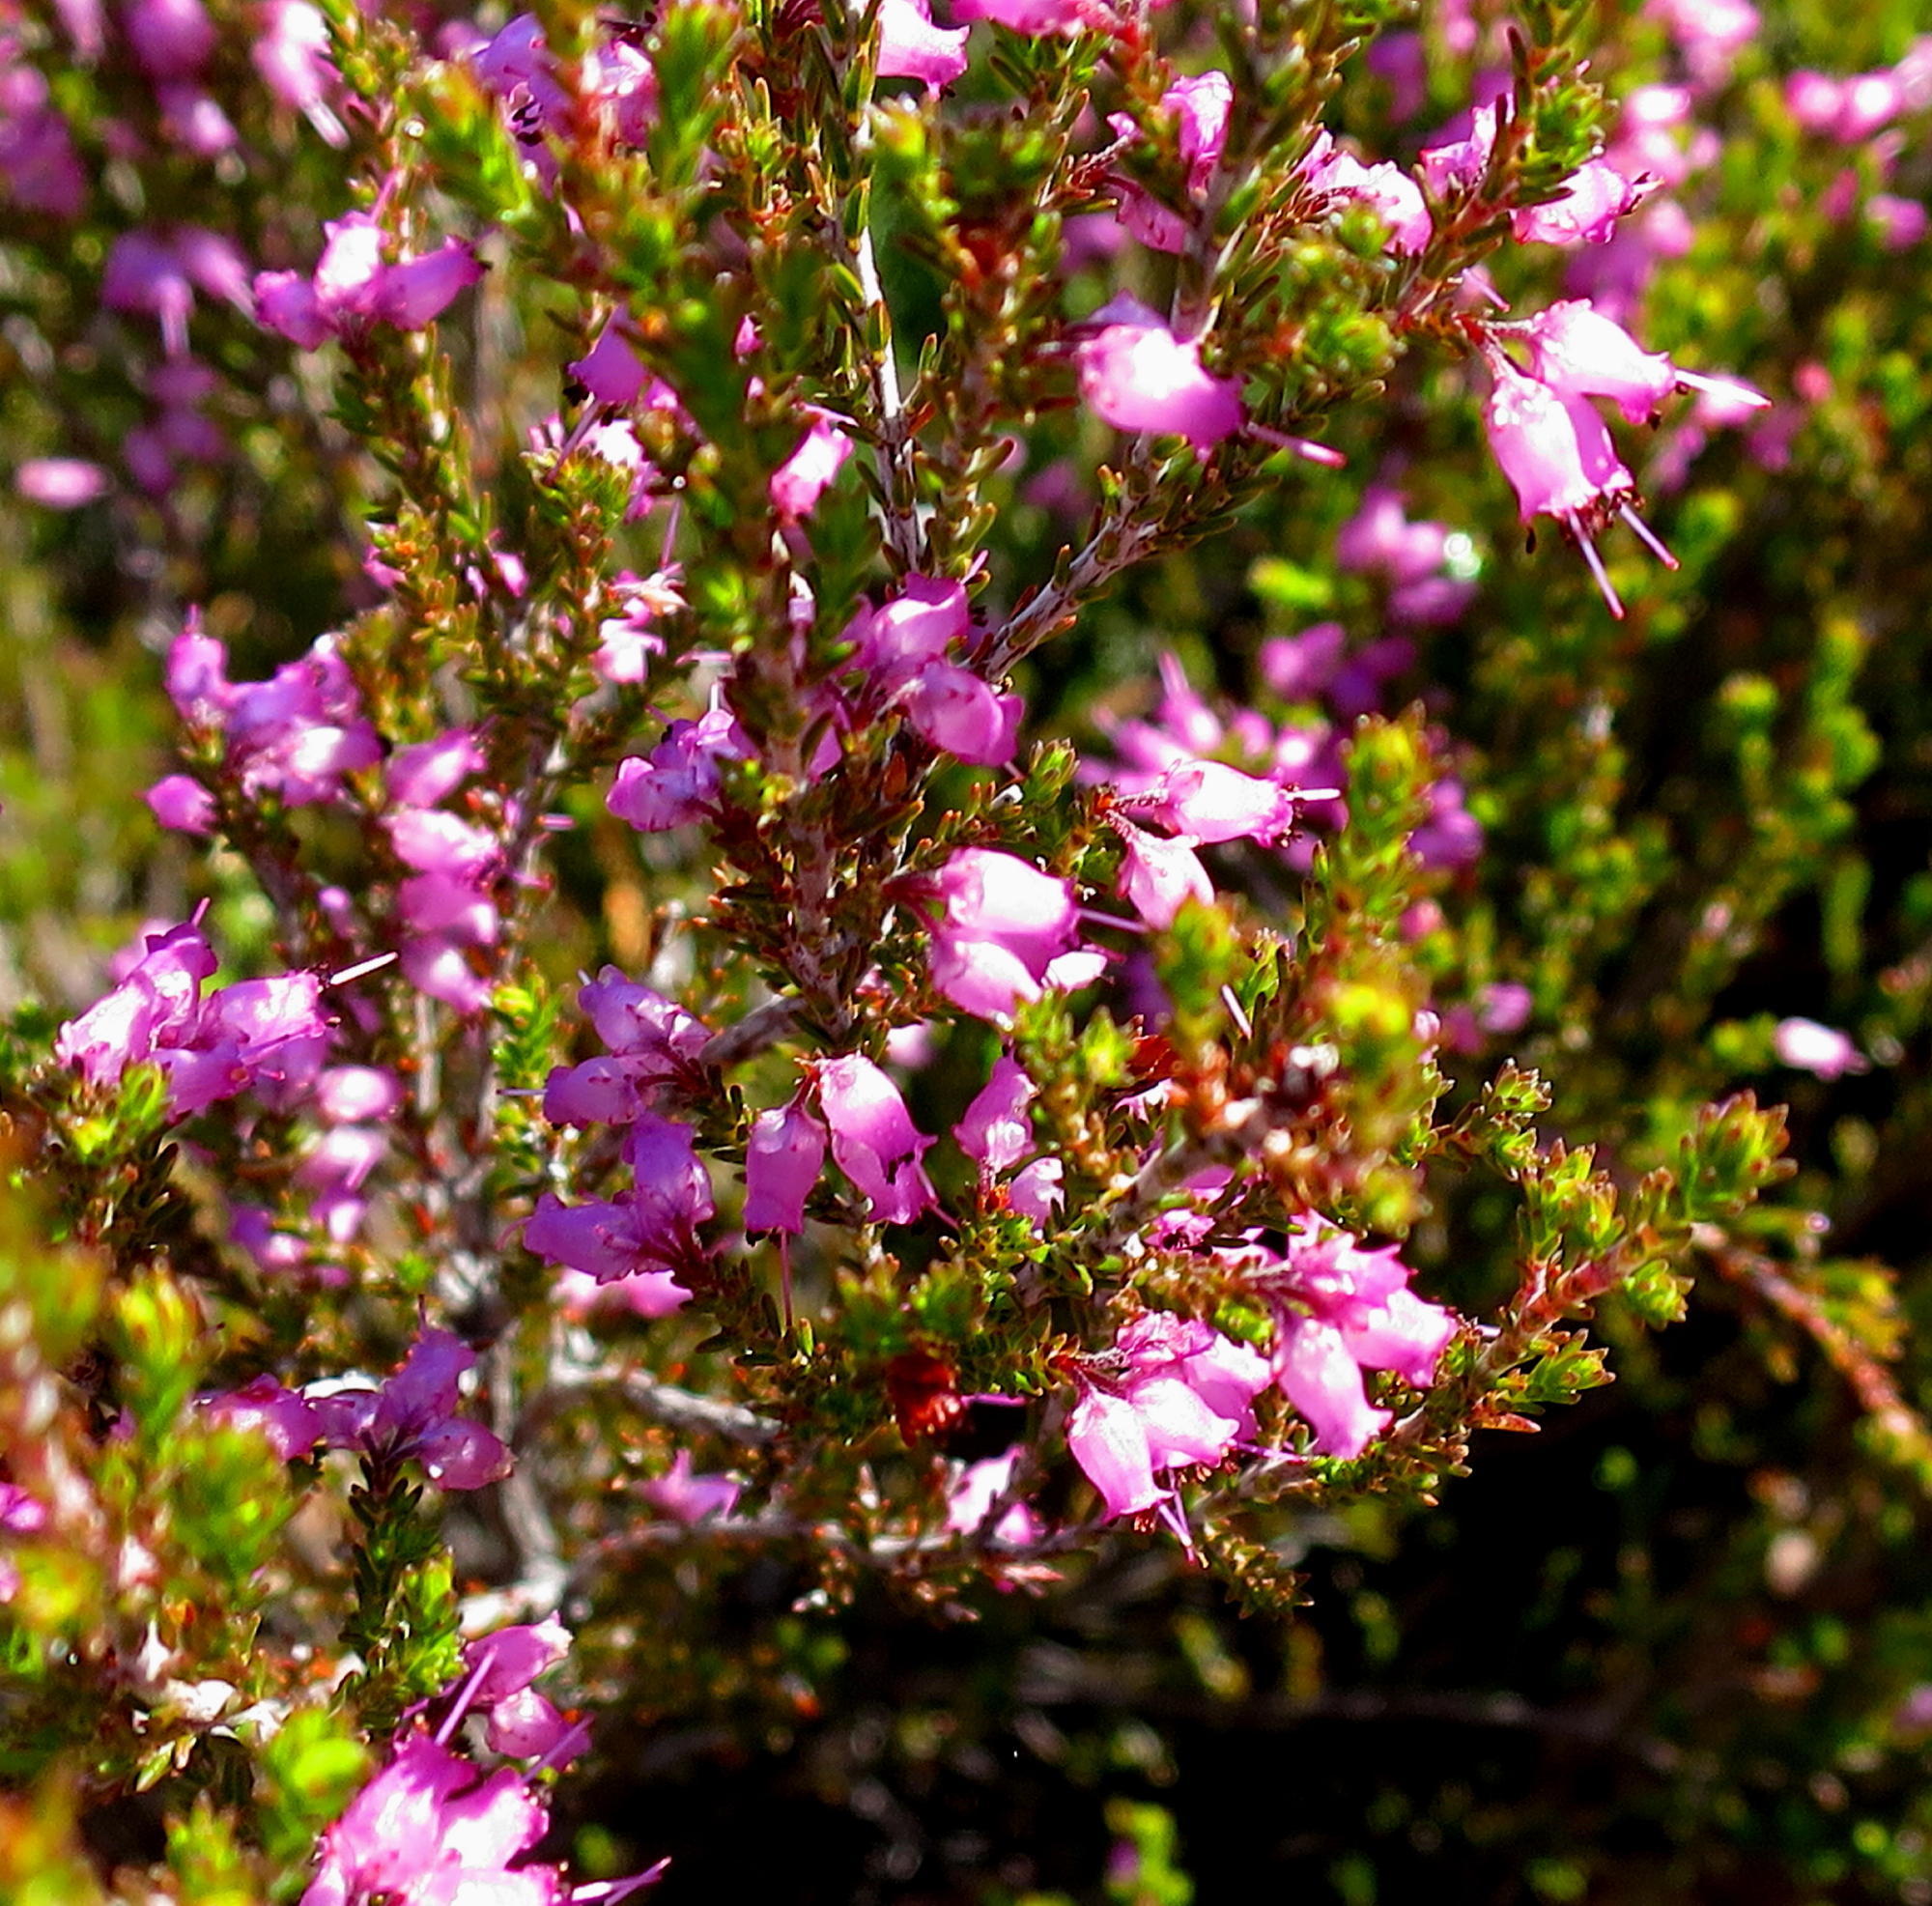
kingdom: Plantae
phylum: Tracheophyta
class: Magnoliopsida
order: Ericales
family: Ericaceae
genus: Erica
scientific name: Erica vlokii
